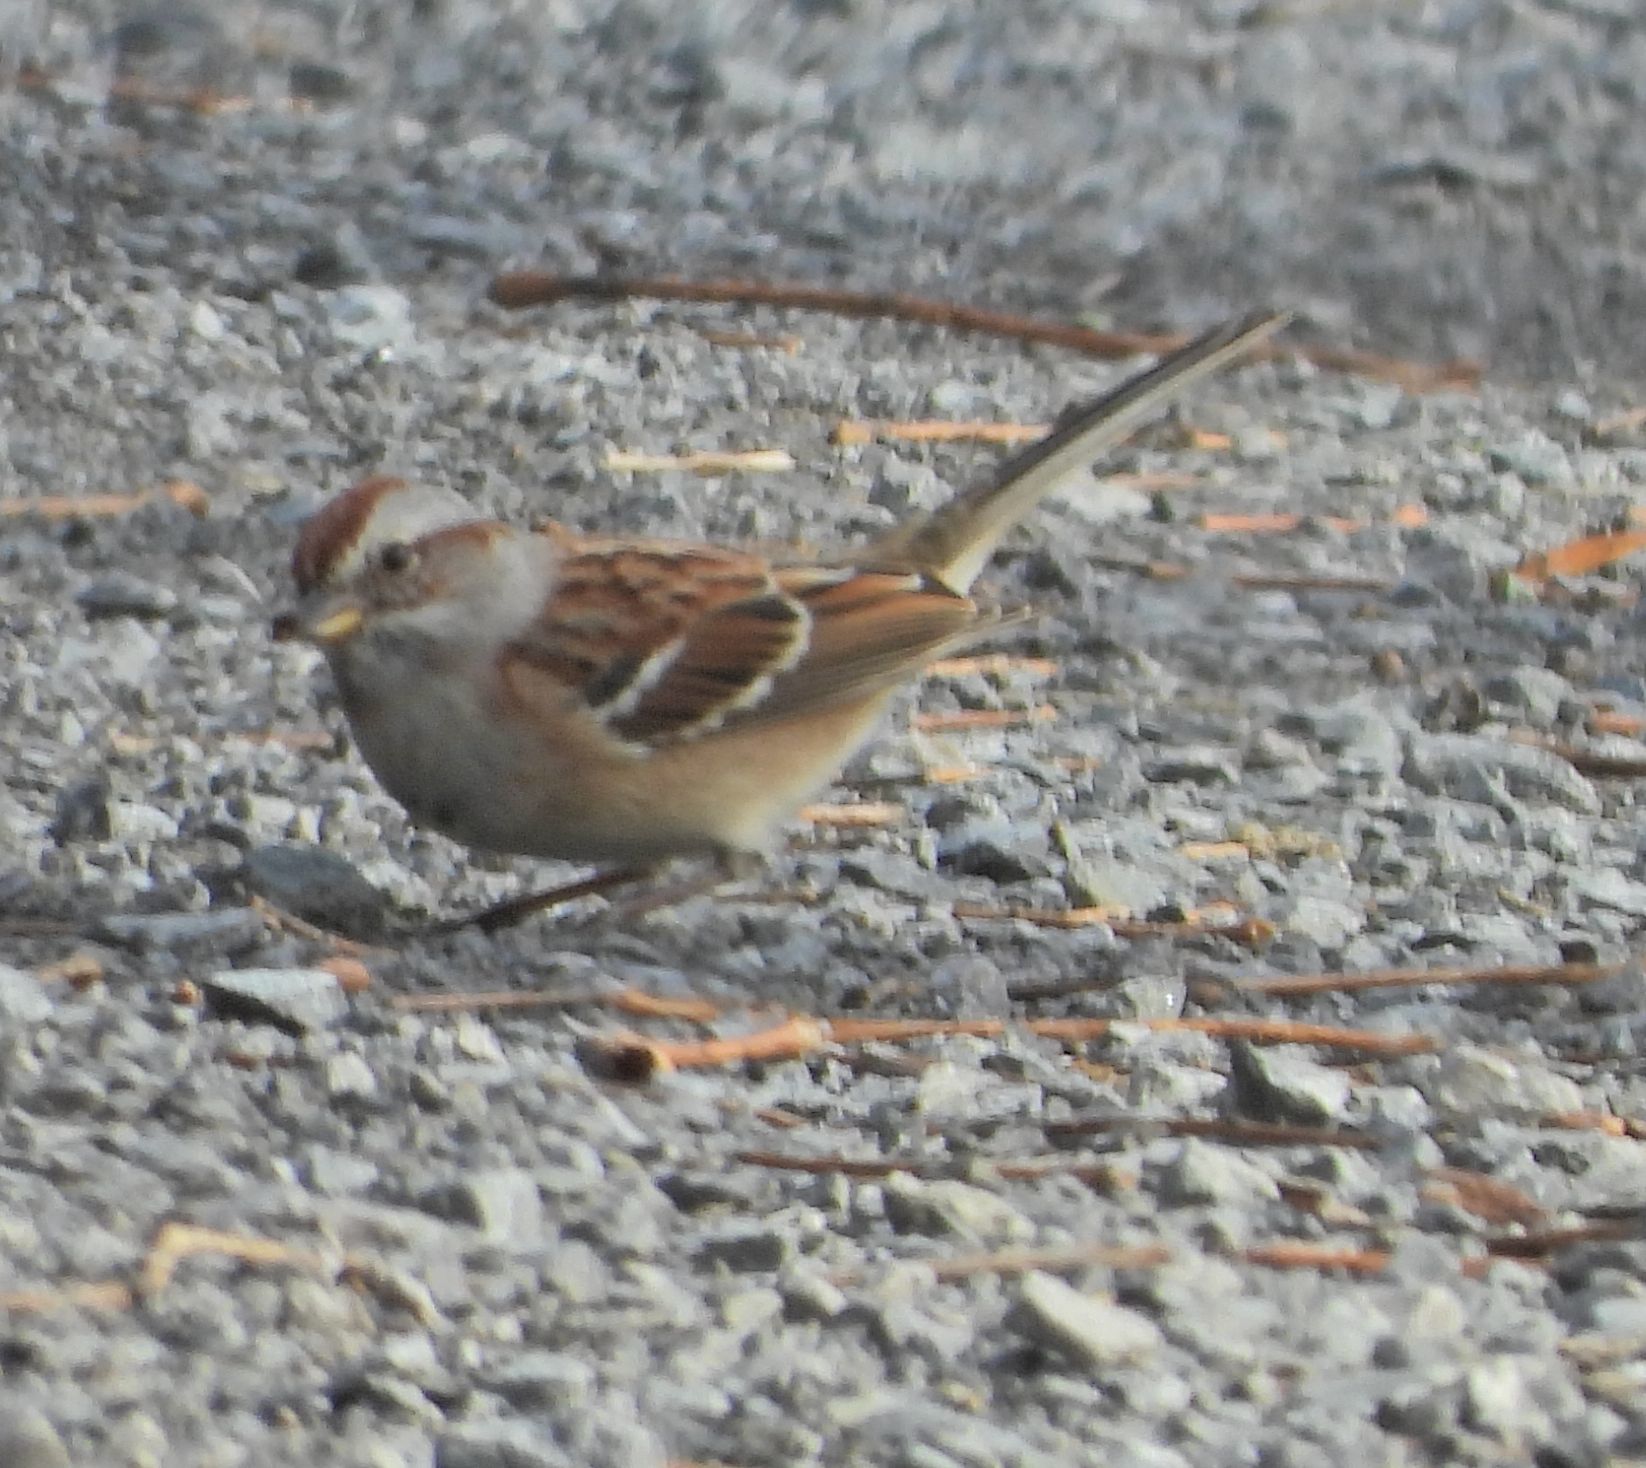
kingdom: Animalia
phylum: Chordata
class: Aves
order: Passeriformes
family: Passerellidae
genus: Spizelloides
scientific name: Spizelloides arborea
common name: American tree sparrow
